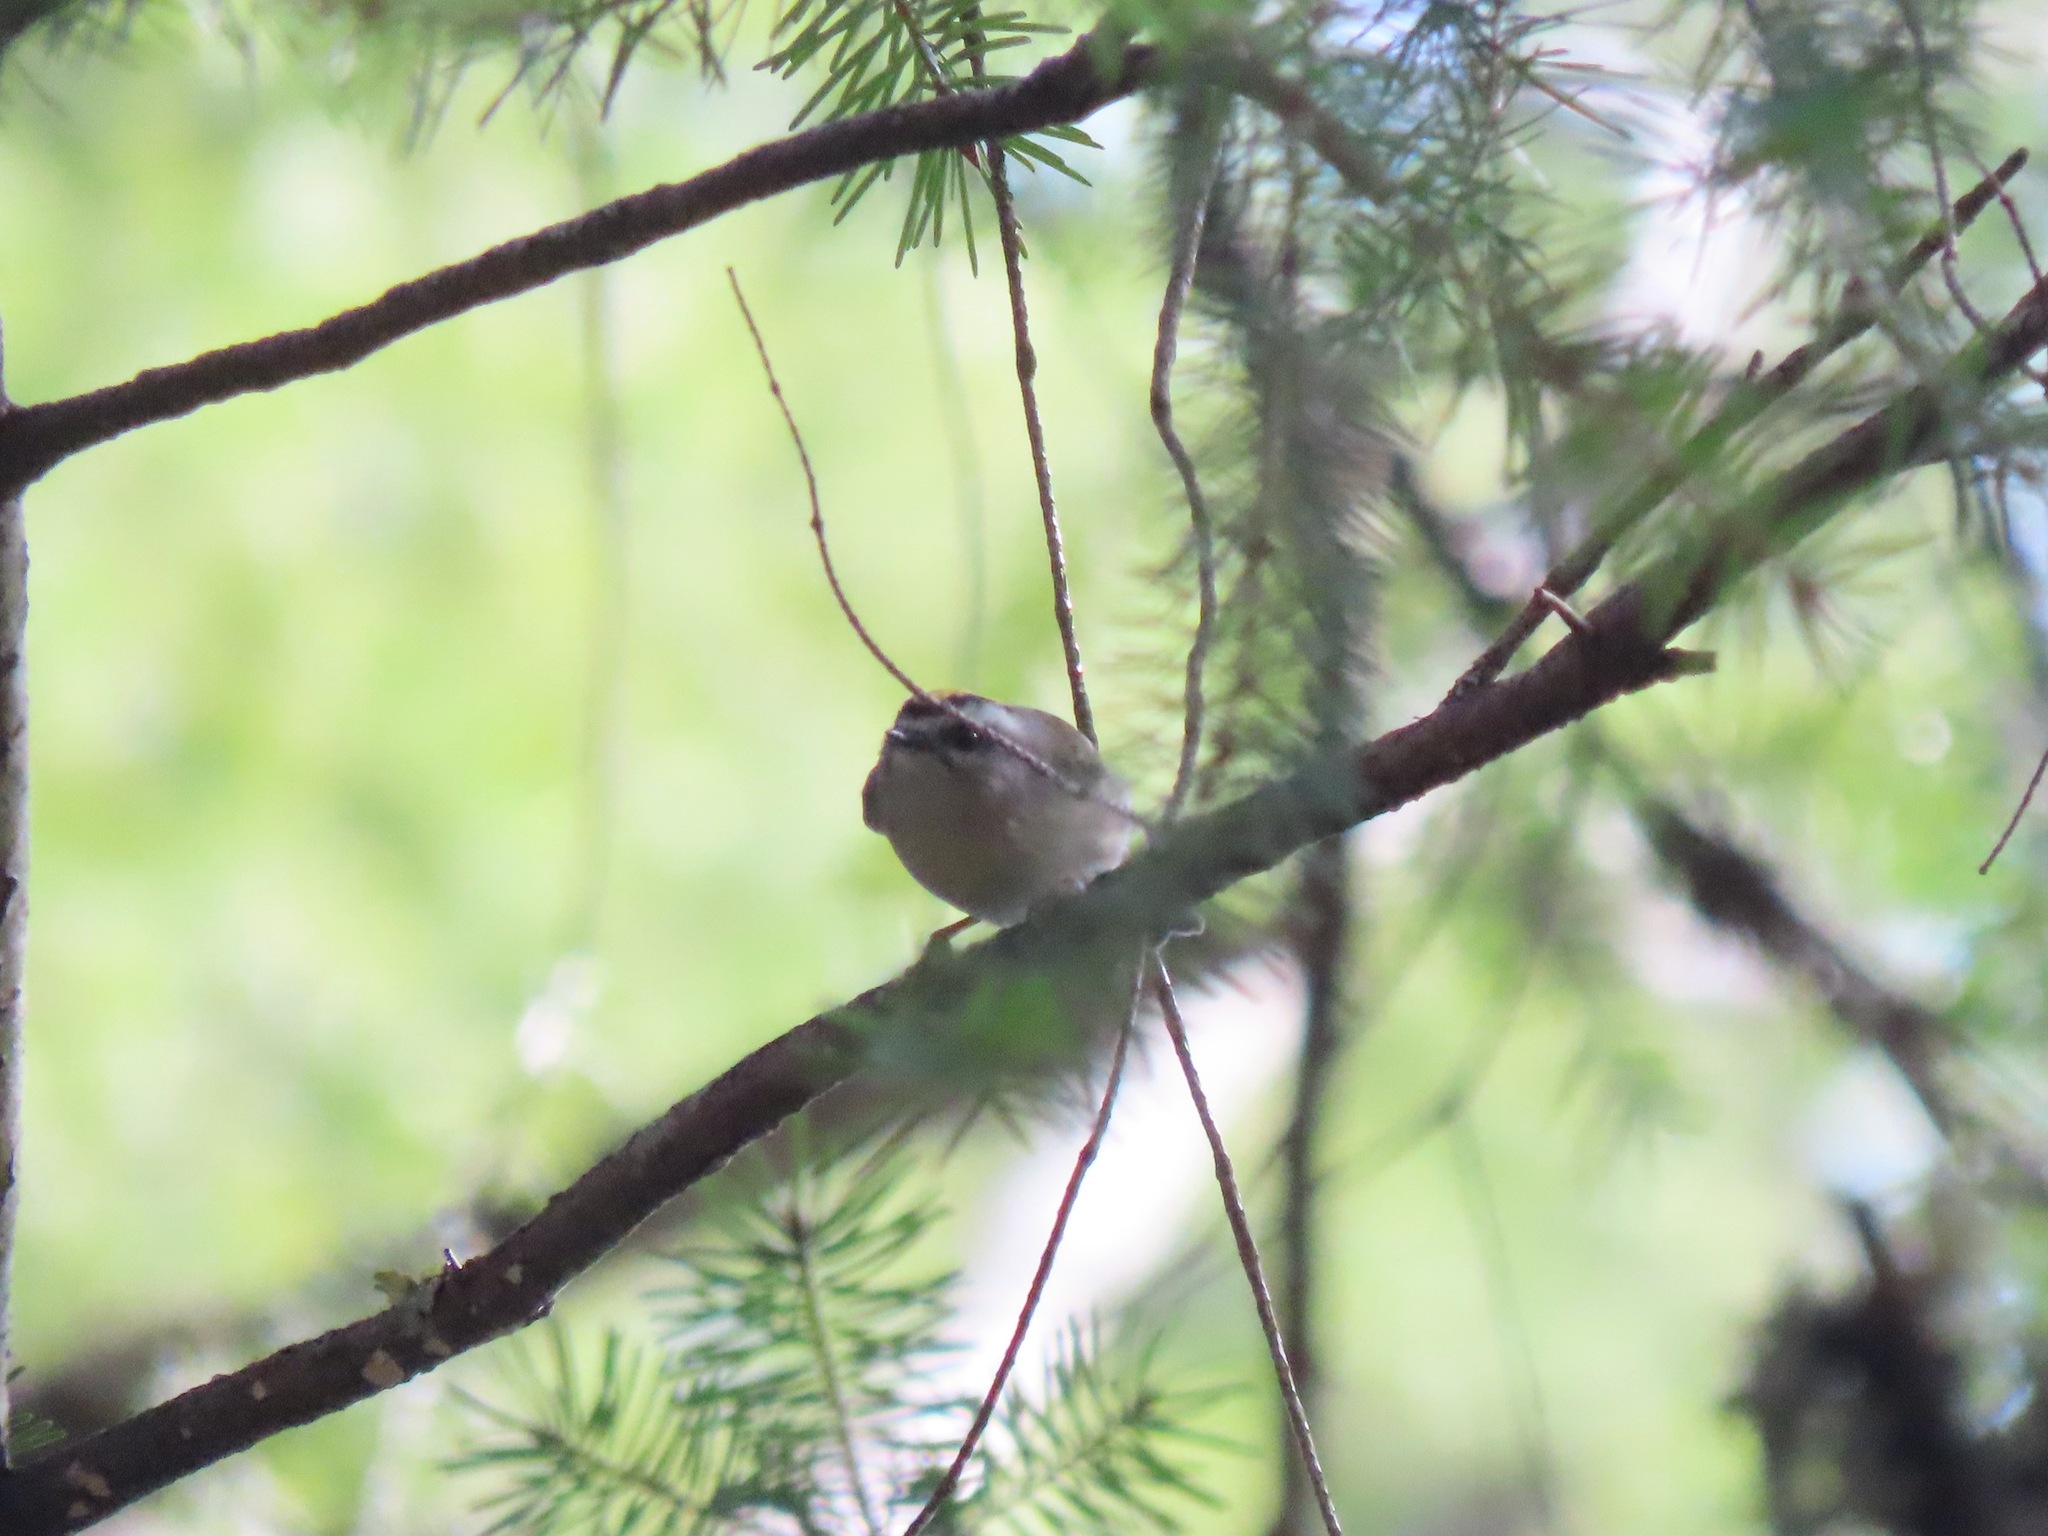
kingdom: Animalia
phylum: Chordata
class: Aves
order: Passeriformes
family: Regulidae
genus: Regulus
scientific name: Regulus satrapa
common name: Golden-crowned kinglet
